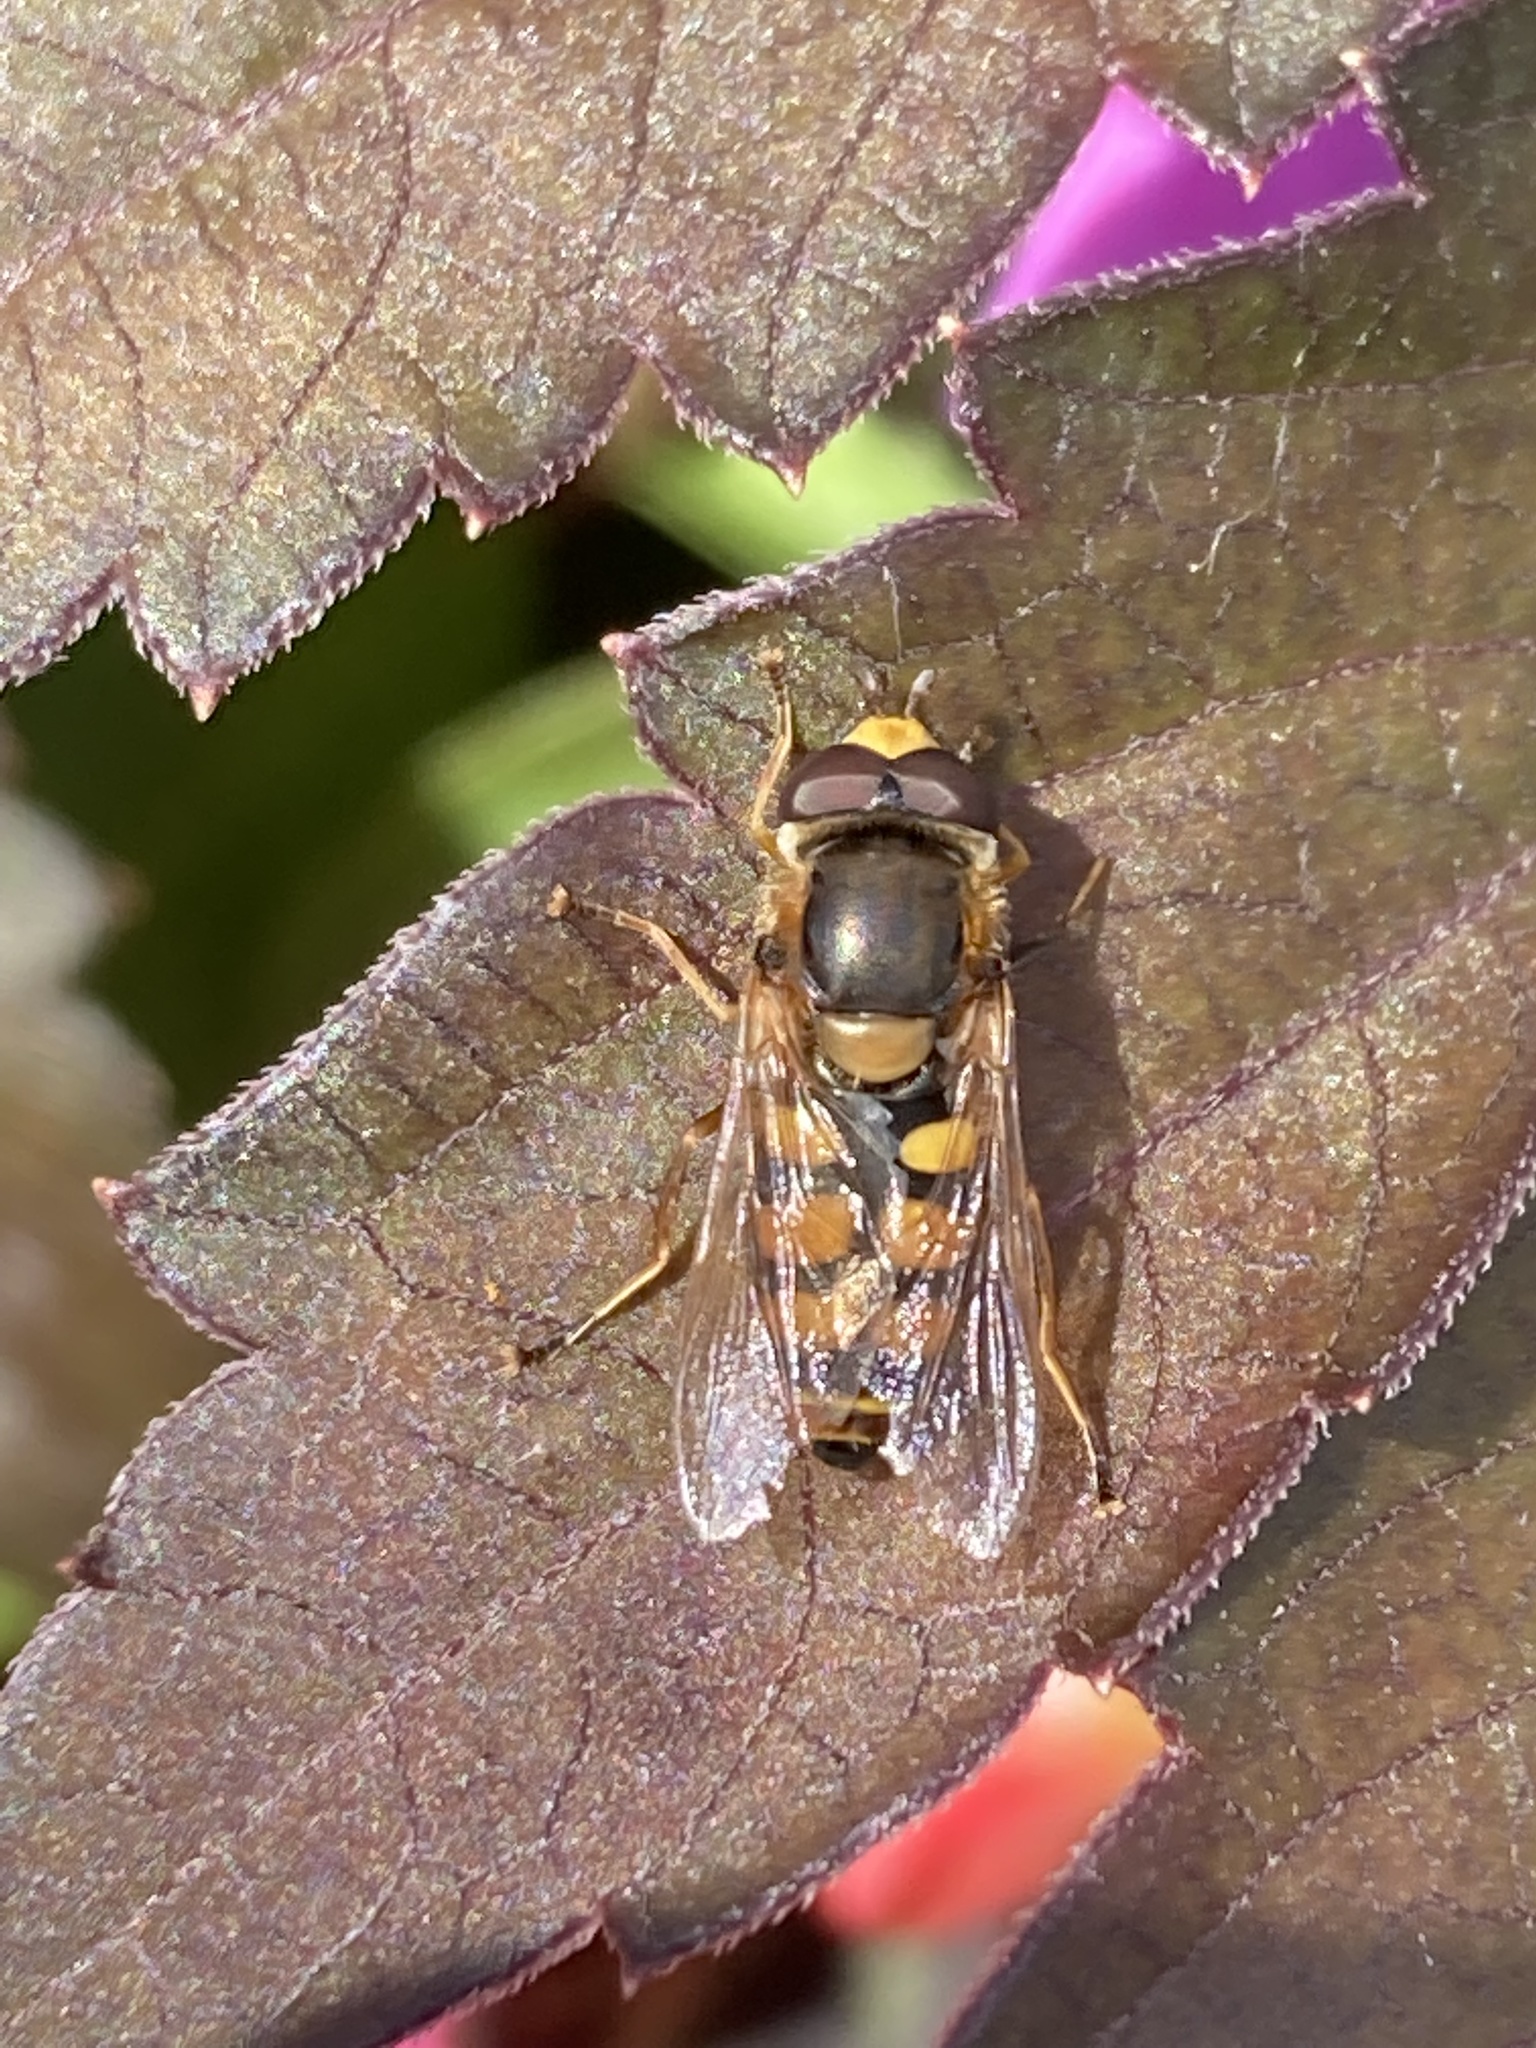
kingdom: Animalia
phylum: Arthropoda
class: Insecta
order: Diptera
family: Syrphidae
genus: Eupeodes
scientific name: Eupeodes corollae
